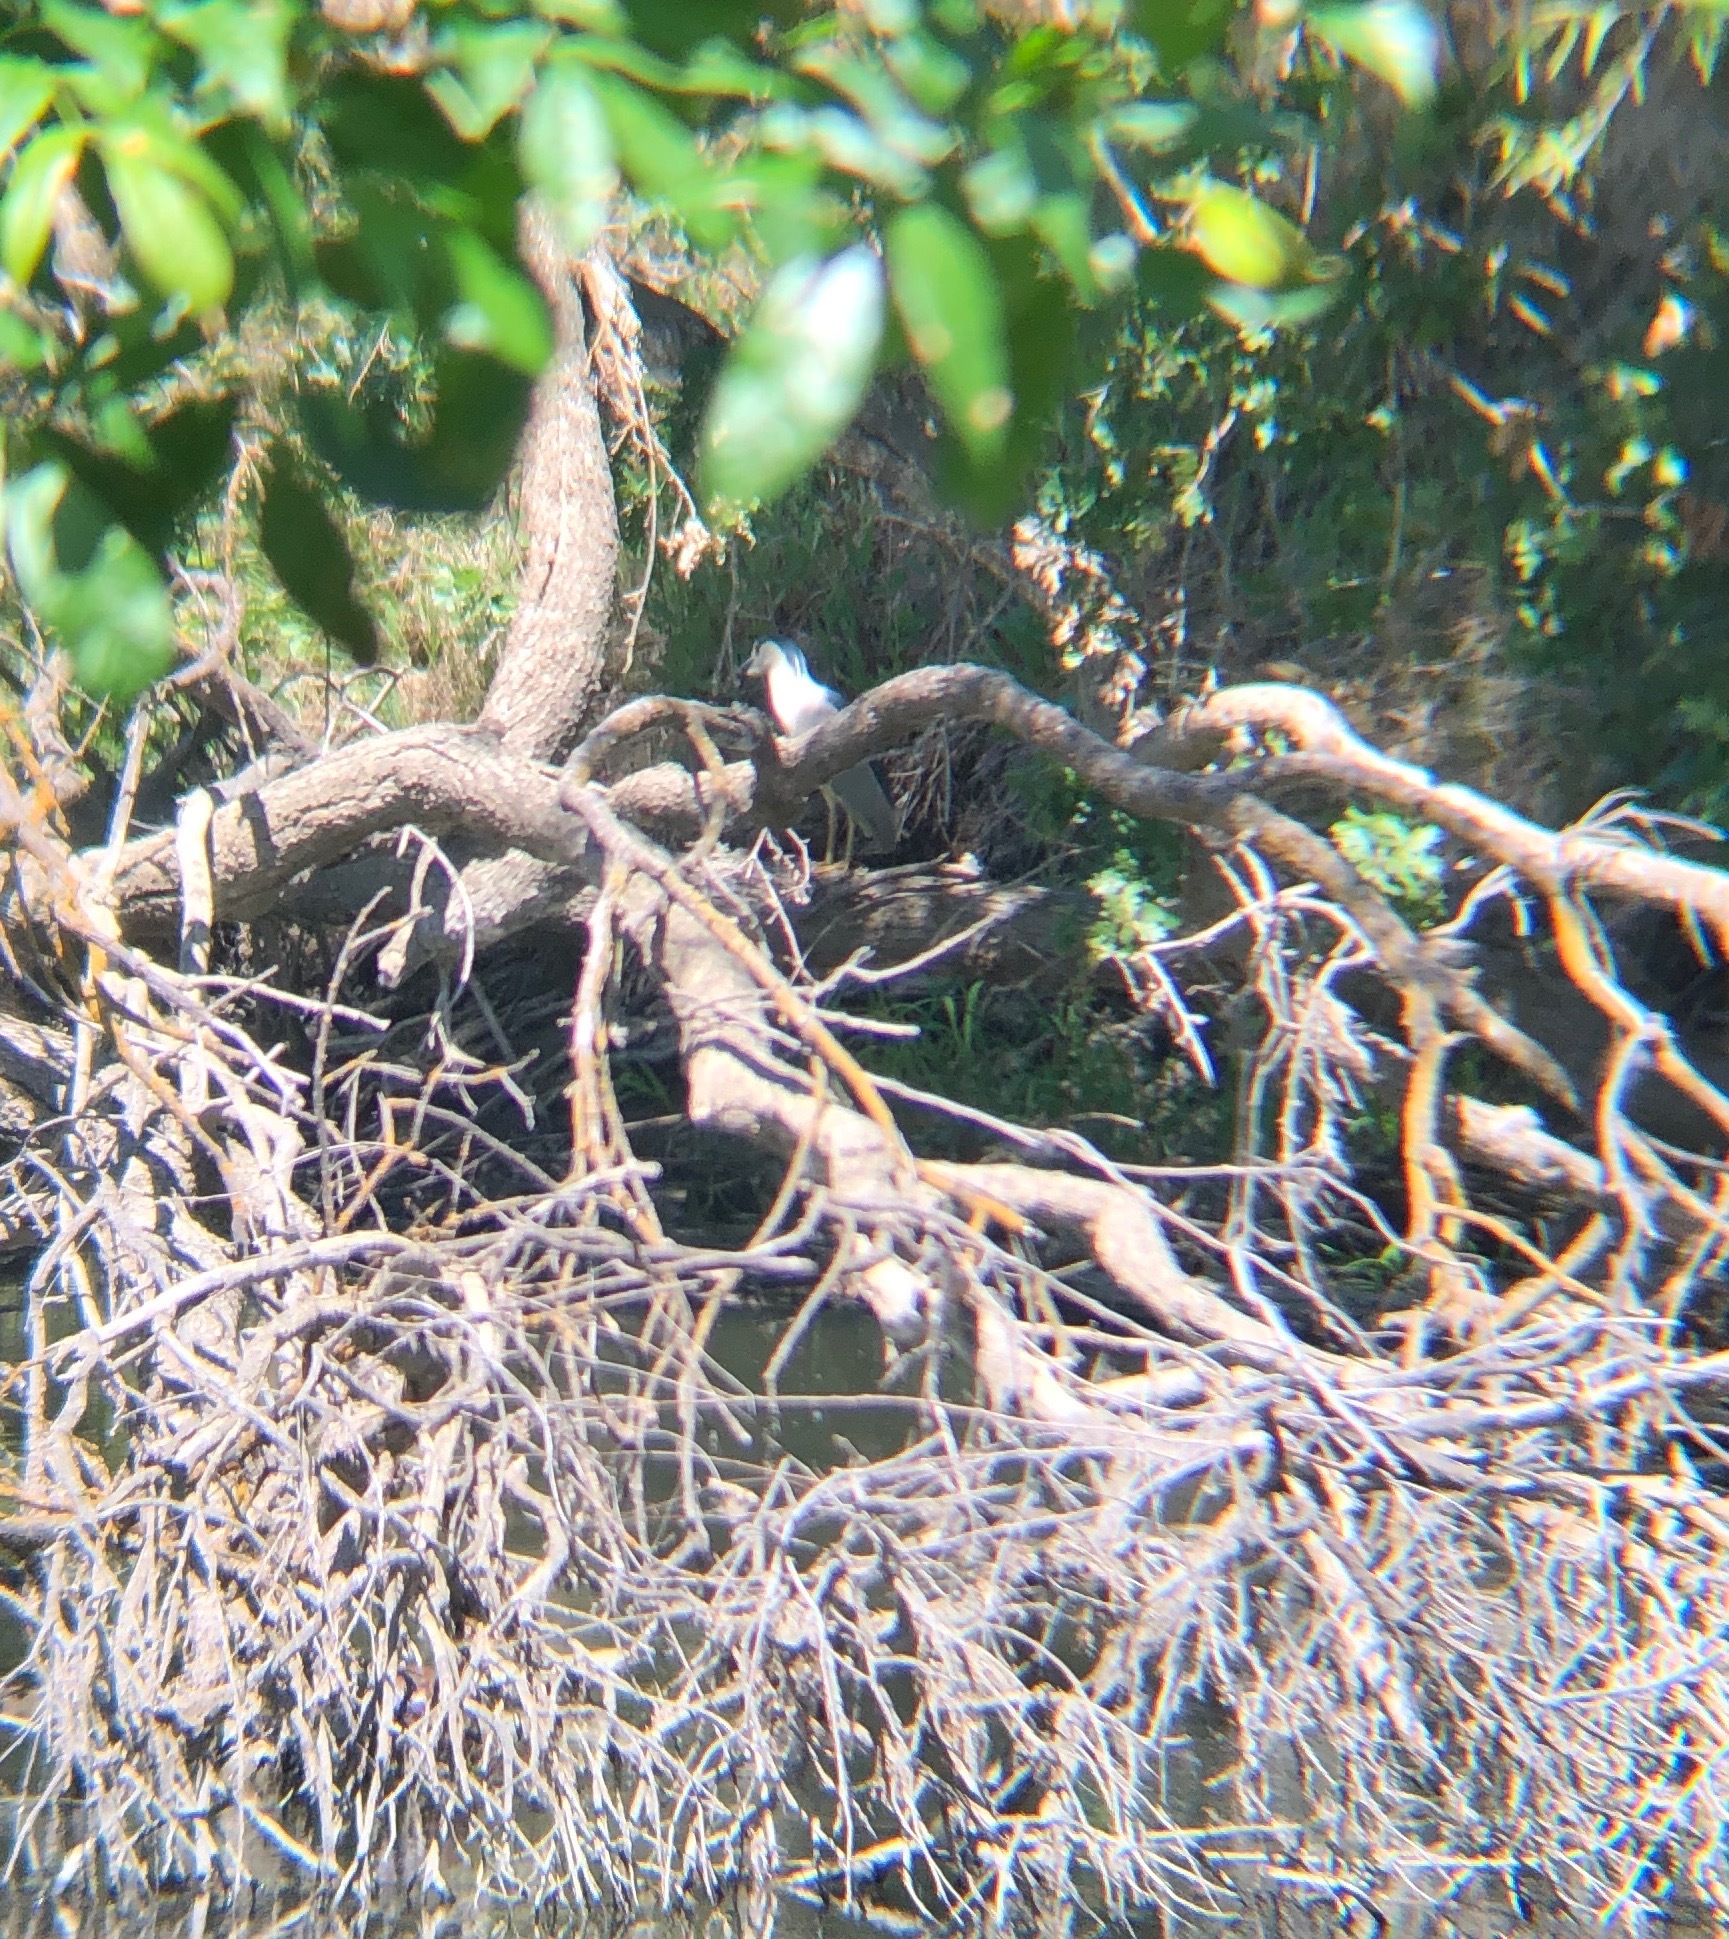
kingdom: Animalia
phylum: Chordata
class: Aves
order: Pelecaniformes
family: Ardeidae
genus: Nycticorax
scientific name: Nycticorax nycticorax
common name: Black-crowned night heron
